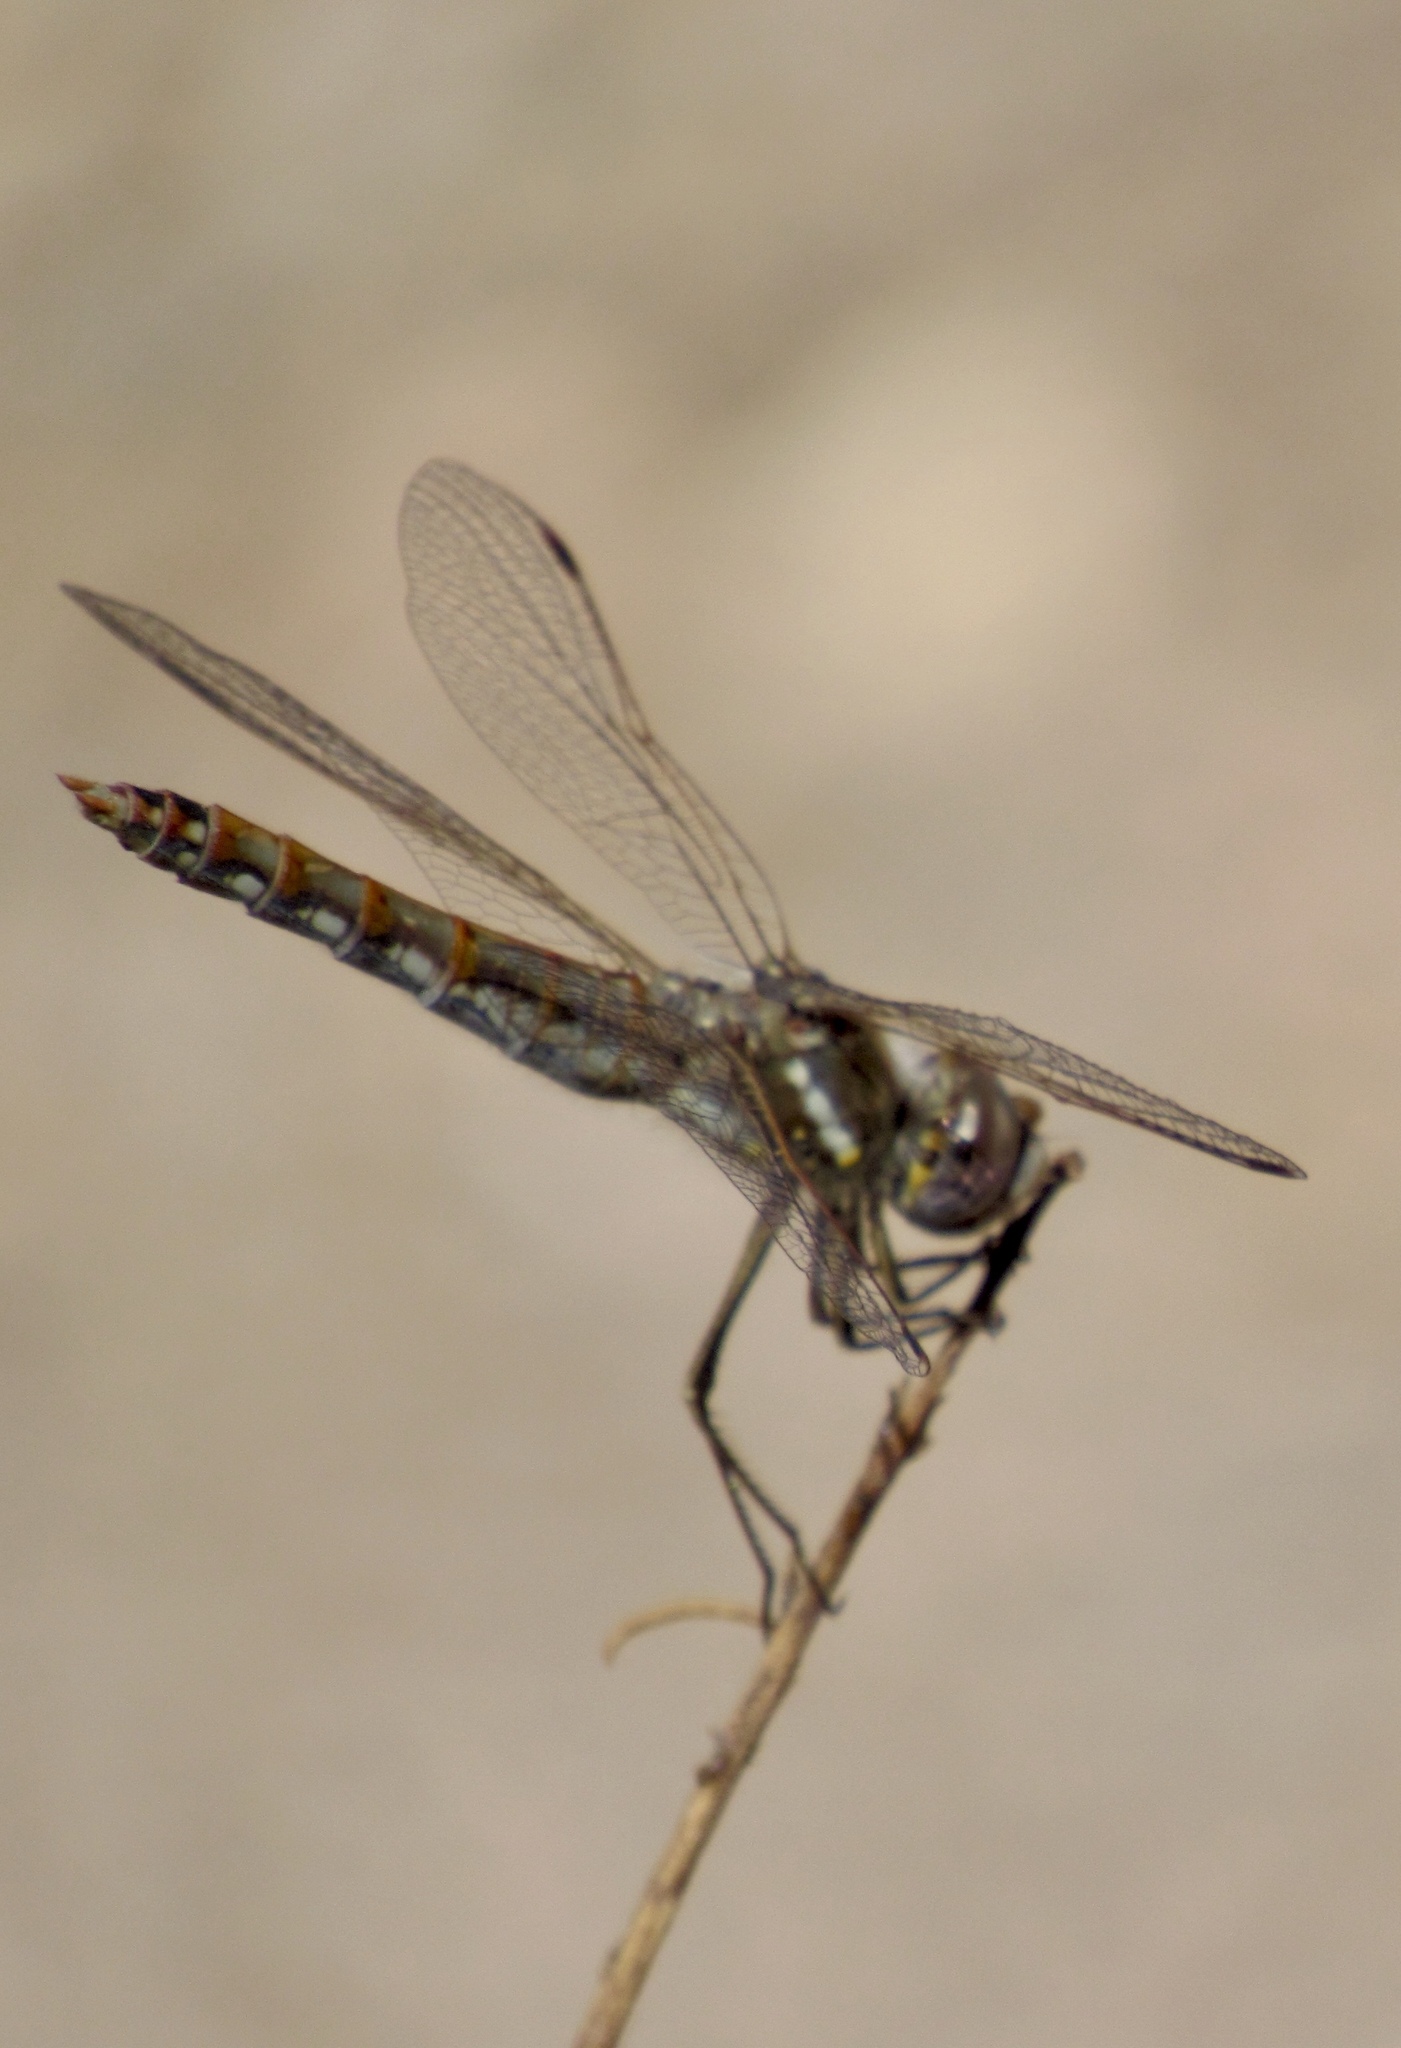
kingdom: Animalia
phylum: Arthropoda
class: Insecta
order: Odonata
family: Libellulidae
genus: Sympetrum
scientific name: Sympetrum corruptum
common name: Variegated meadowhawk
